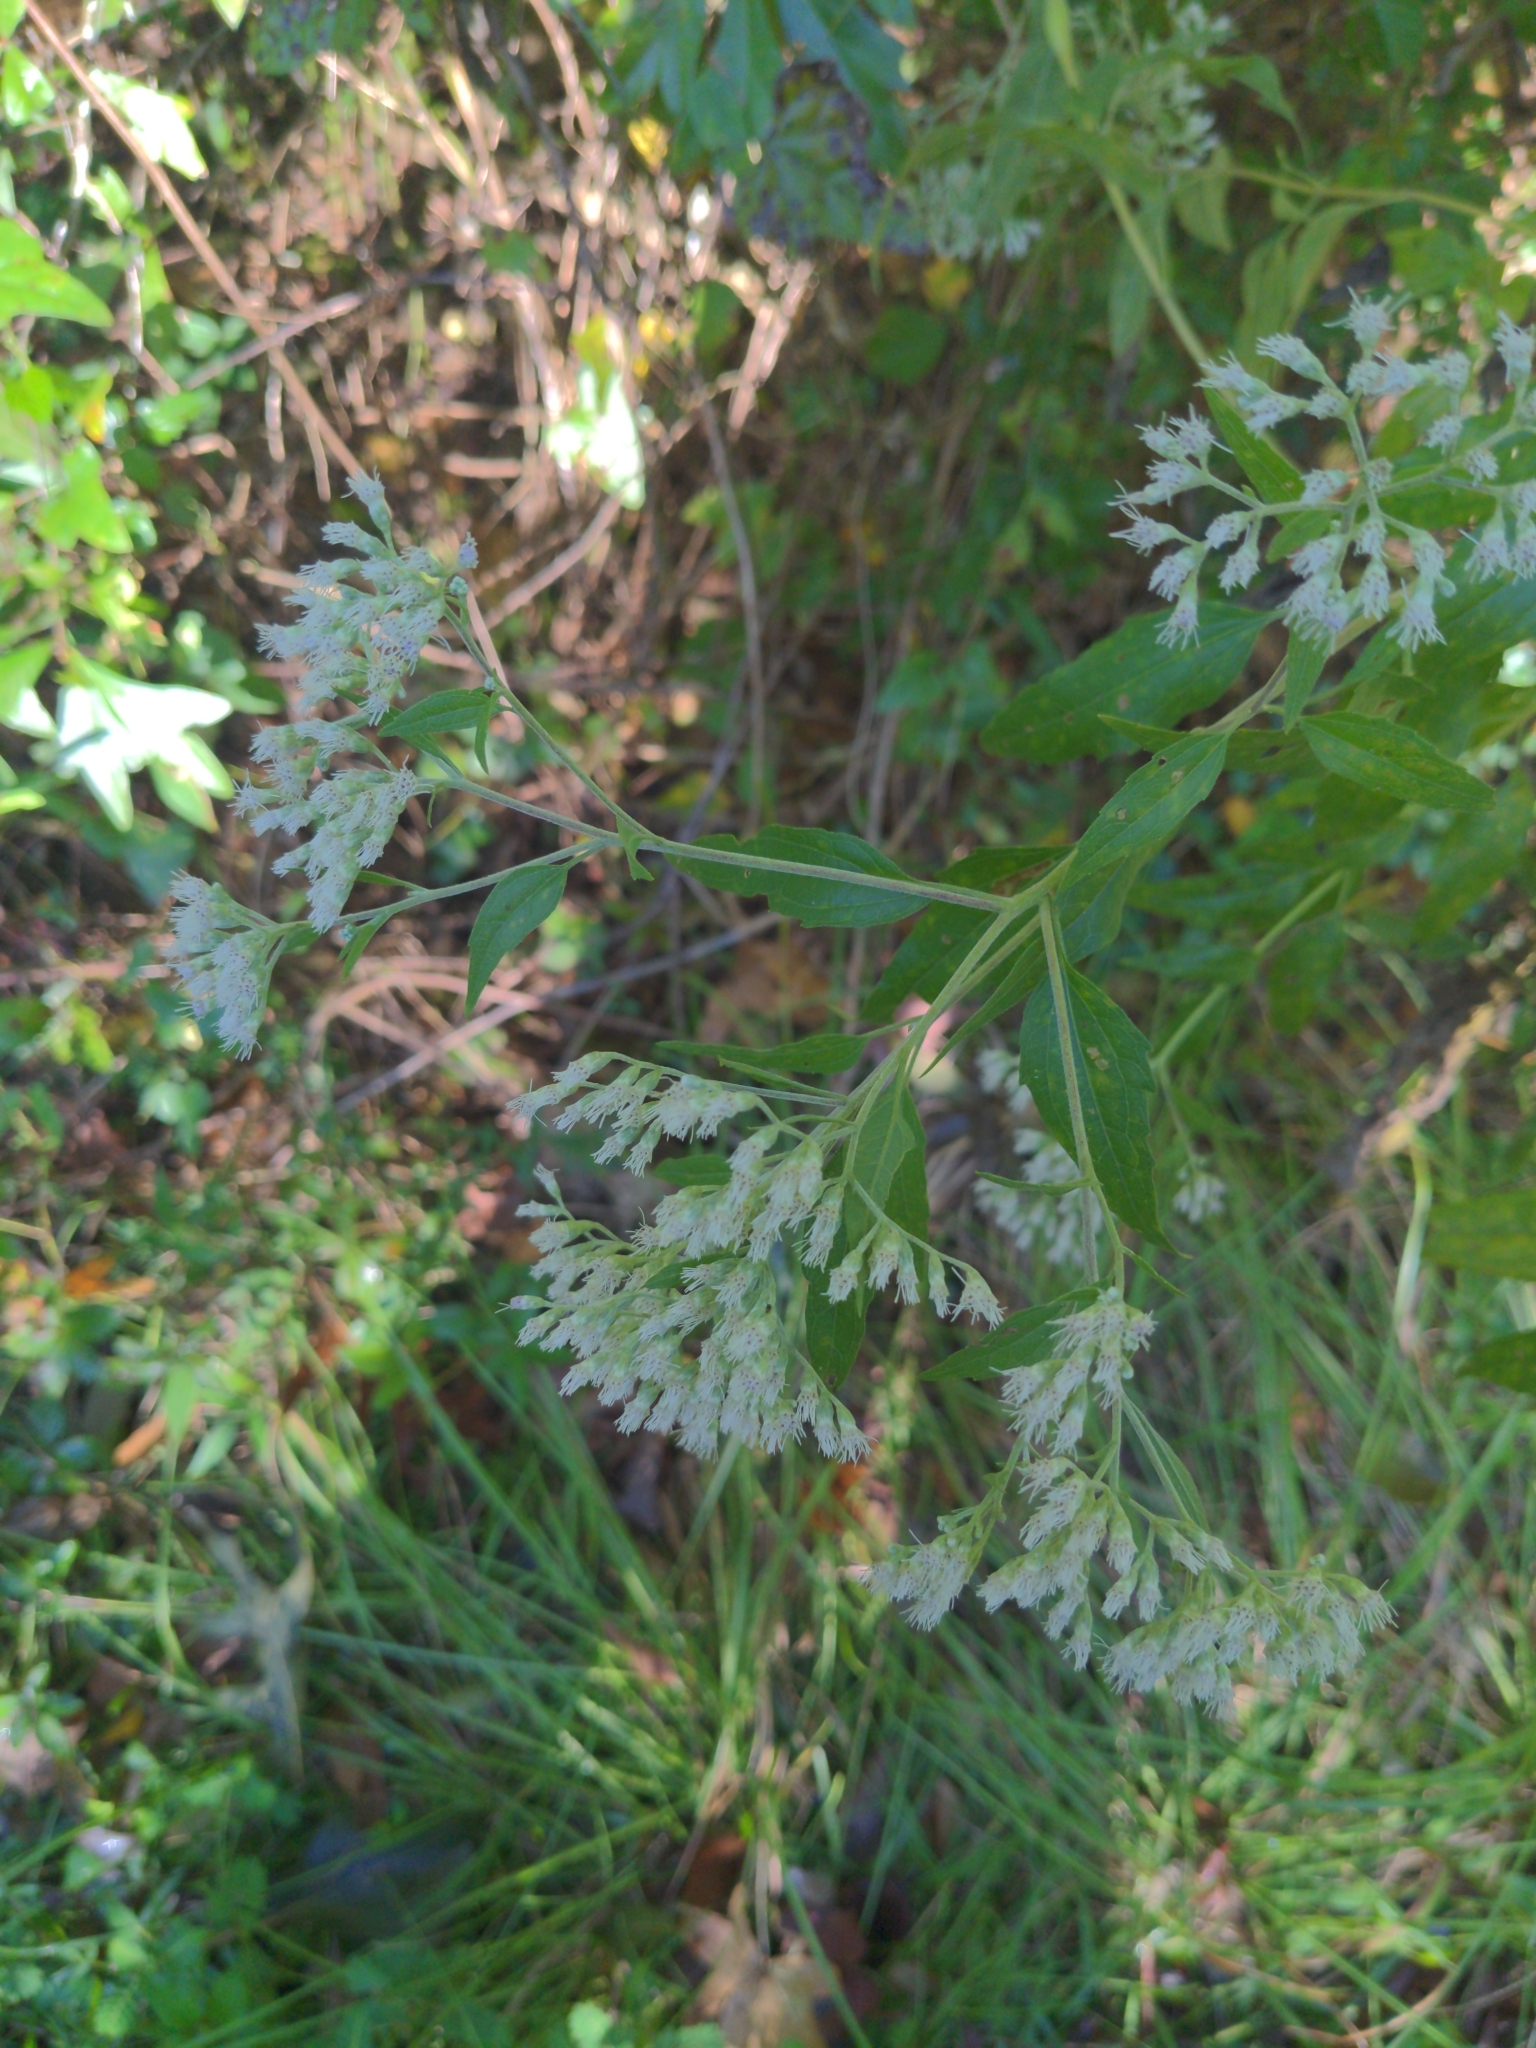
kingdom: Plantae
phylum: Tracheophyta
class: Magnoliopsida
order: Asterales
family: Asteraceae
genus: Eupatorium
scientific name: Eupatorium serotinum
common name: Late boneset
